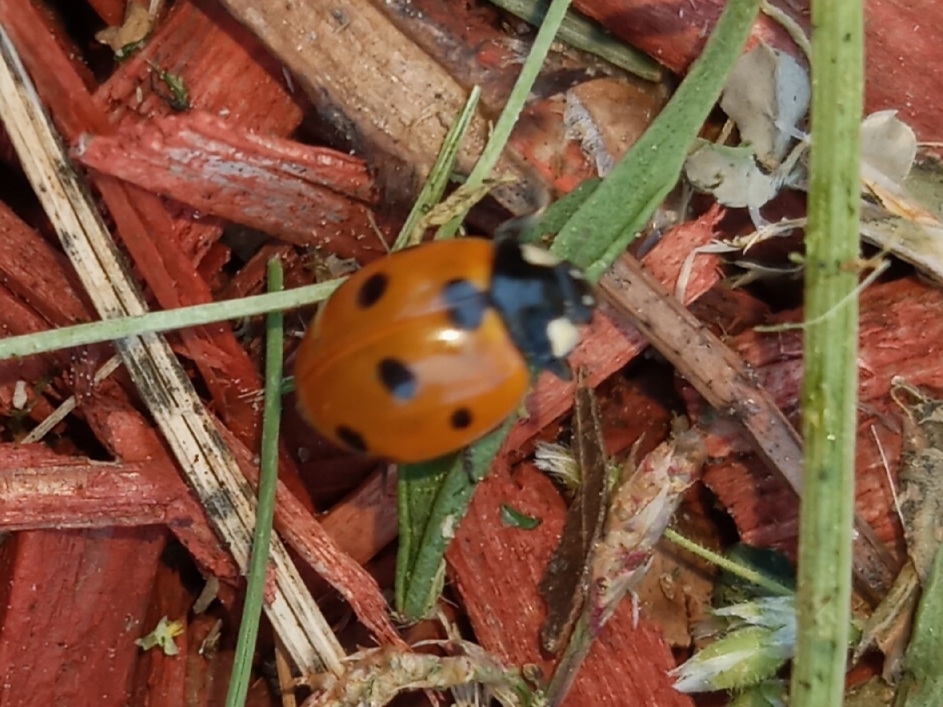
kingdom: Animalia
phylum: Arthropoda
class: Insecta
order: Coleoptera
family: Coccinellidae
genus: Coccinella
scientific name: Coccinella septempunctata
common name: Sevenspotted lady beetle
